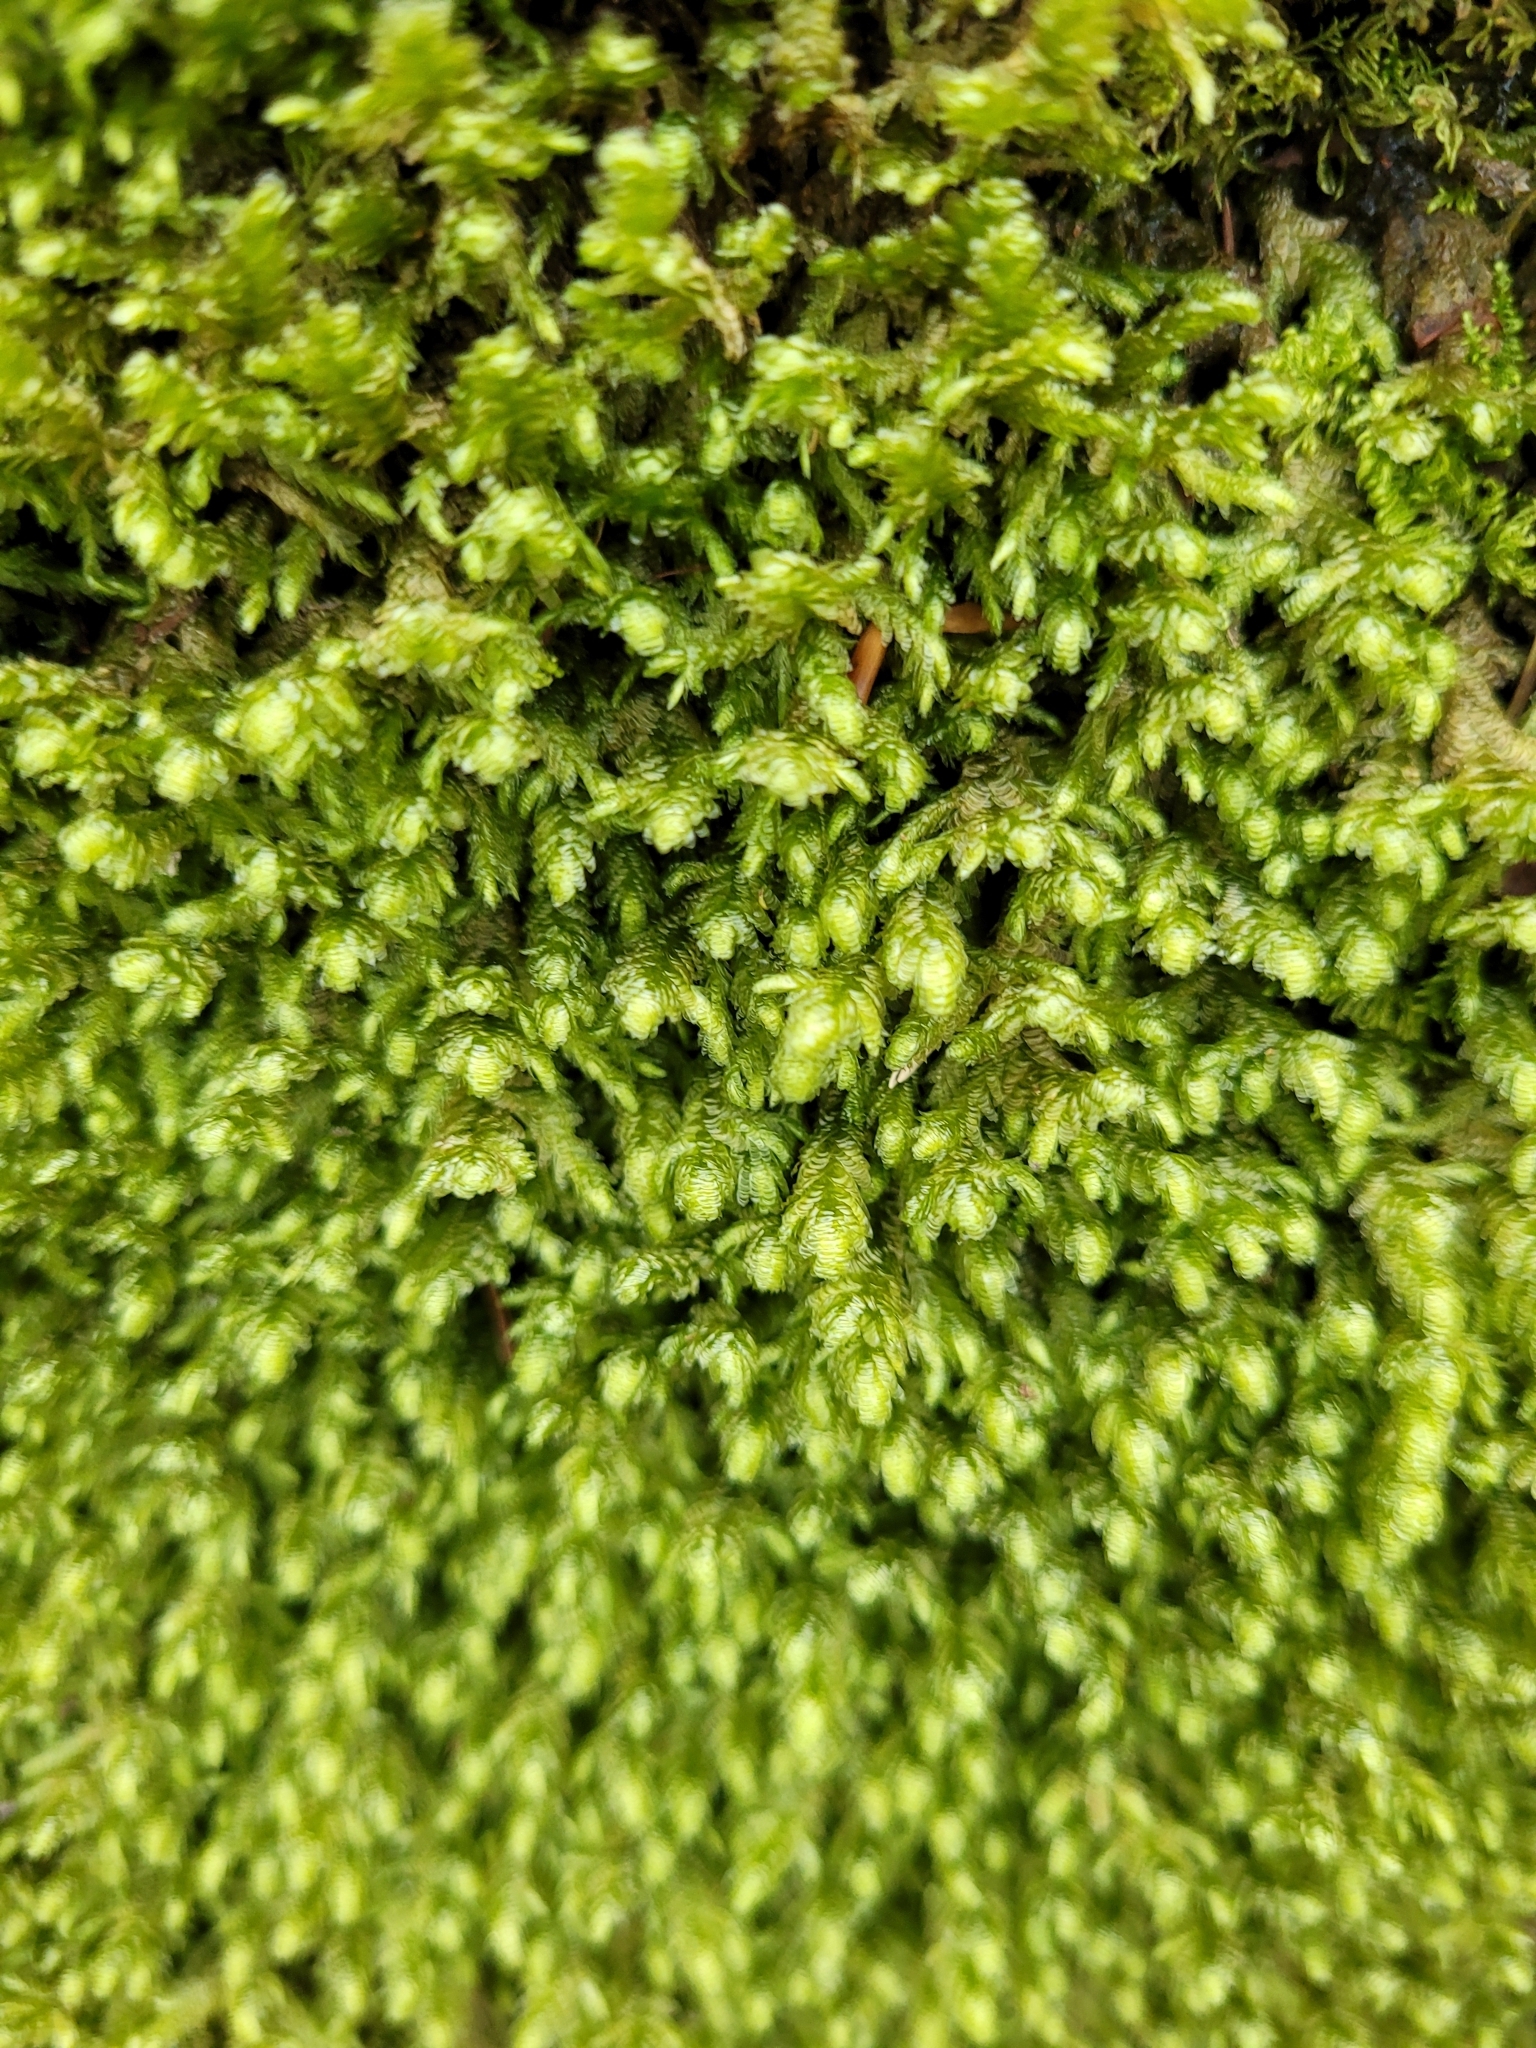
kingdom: Plantae
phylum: Bryophyta
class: Bryopsida
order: Hypnales
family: Neckeraceae
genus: Exsertotheca
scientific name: Exsertotheca crispa
